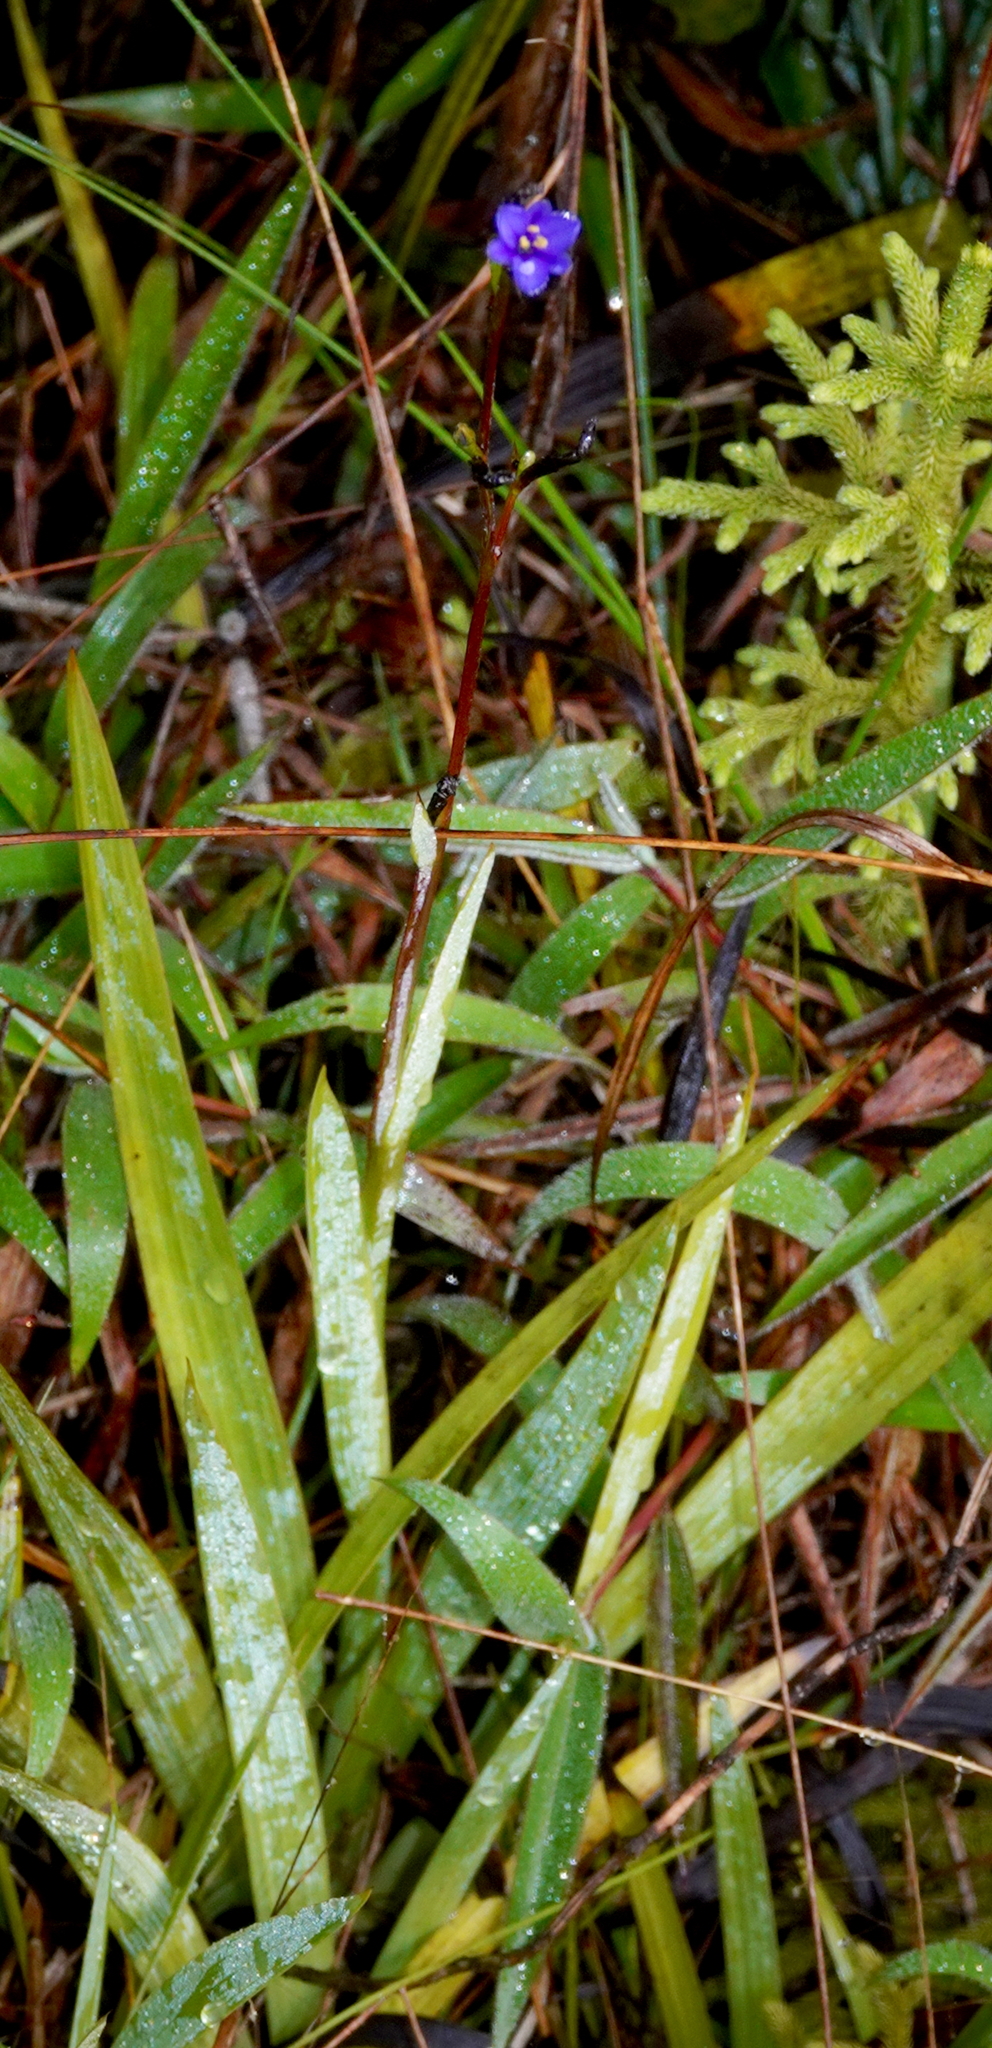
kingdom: Plantae
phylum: Tracheophyta
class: Liliopsida
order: Asparagales
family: Iridaceae
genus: Aristea
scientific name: Aristea ecklonii
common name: Blue corn-lily
